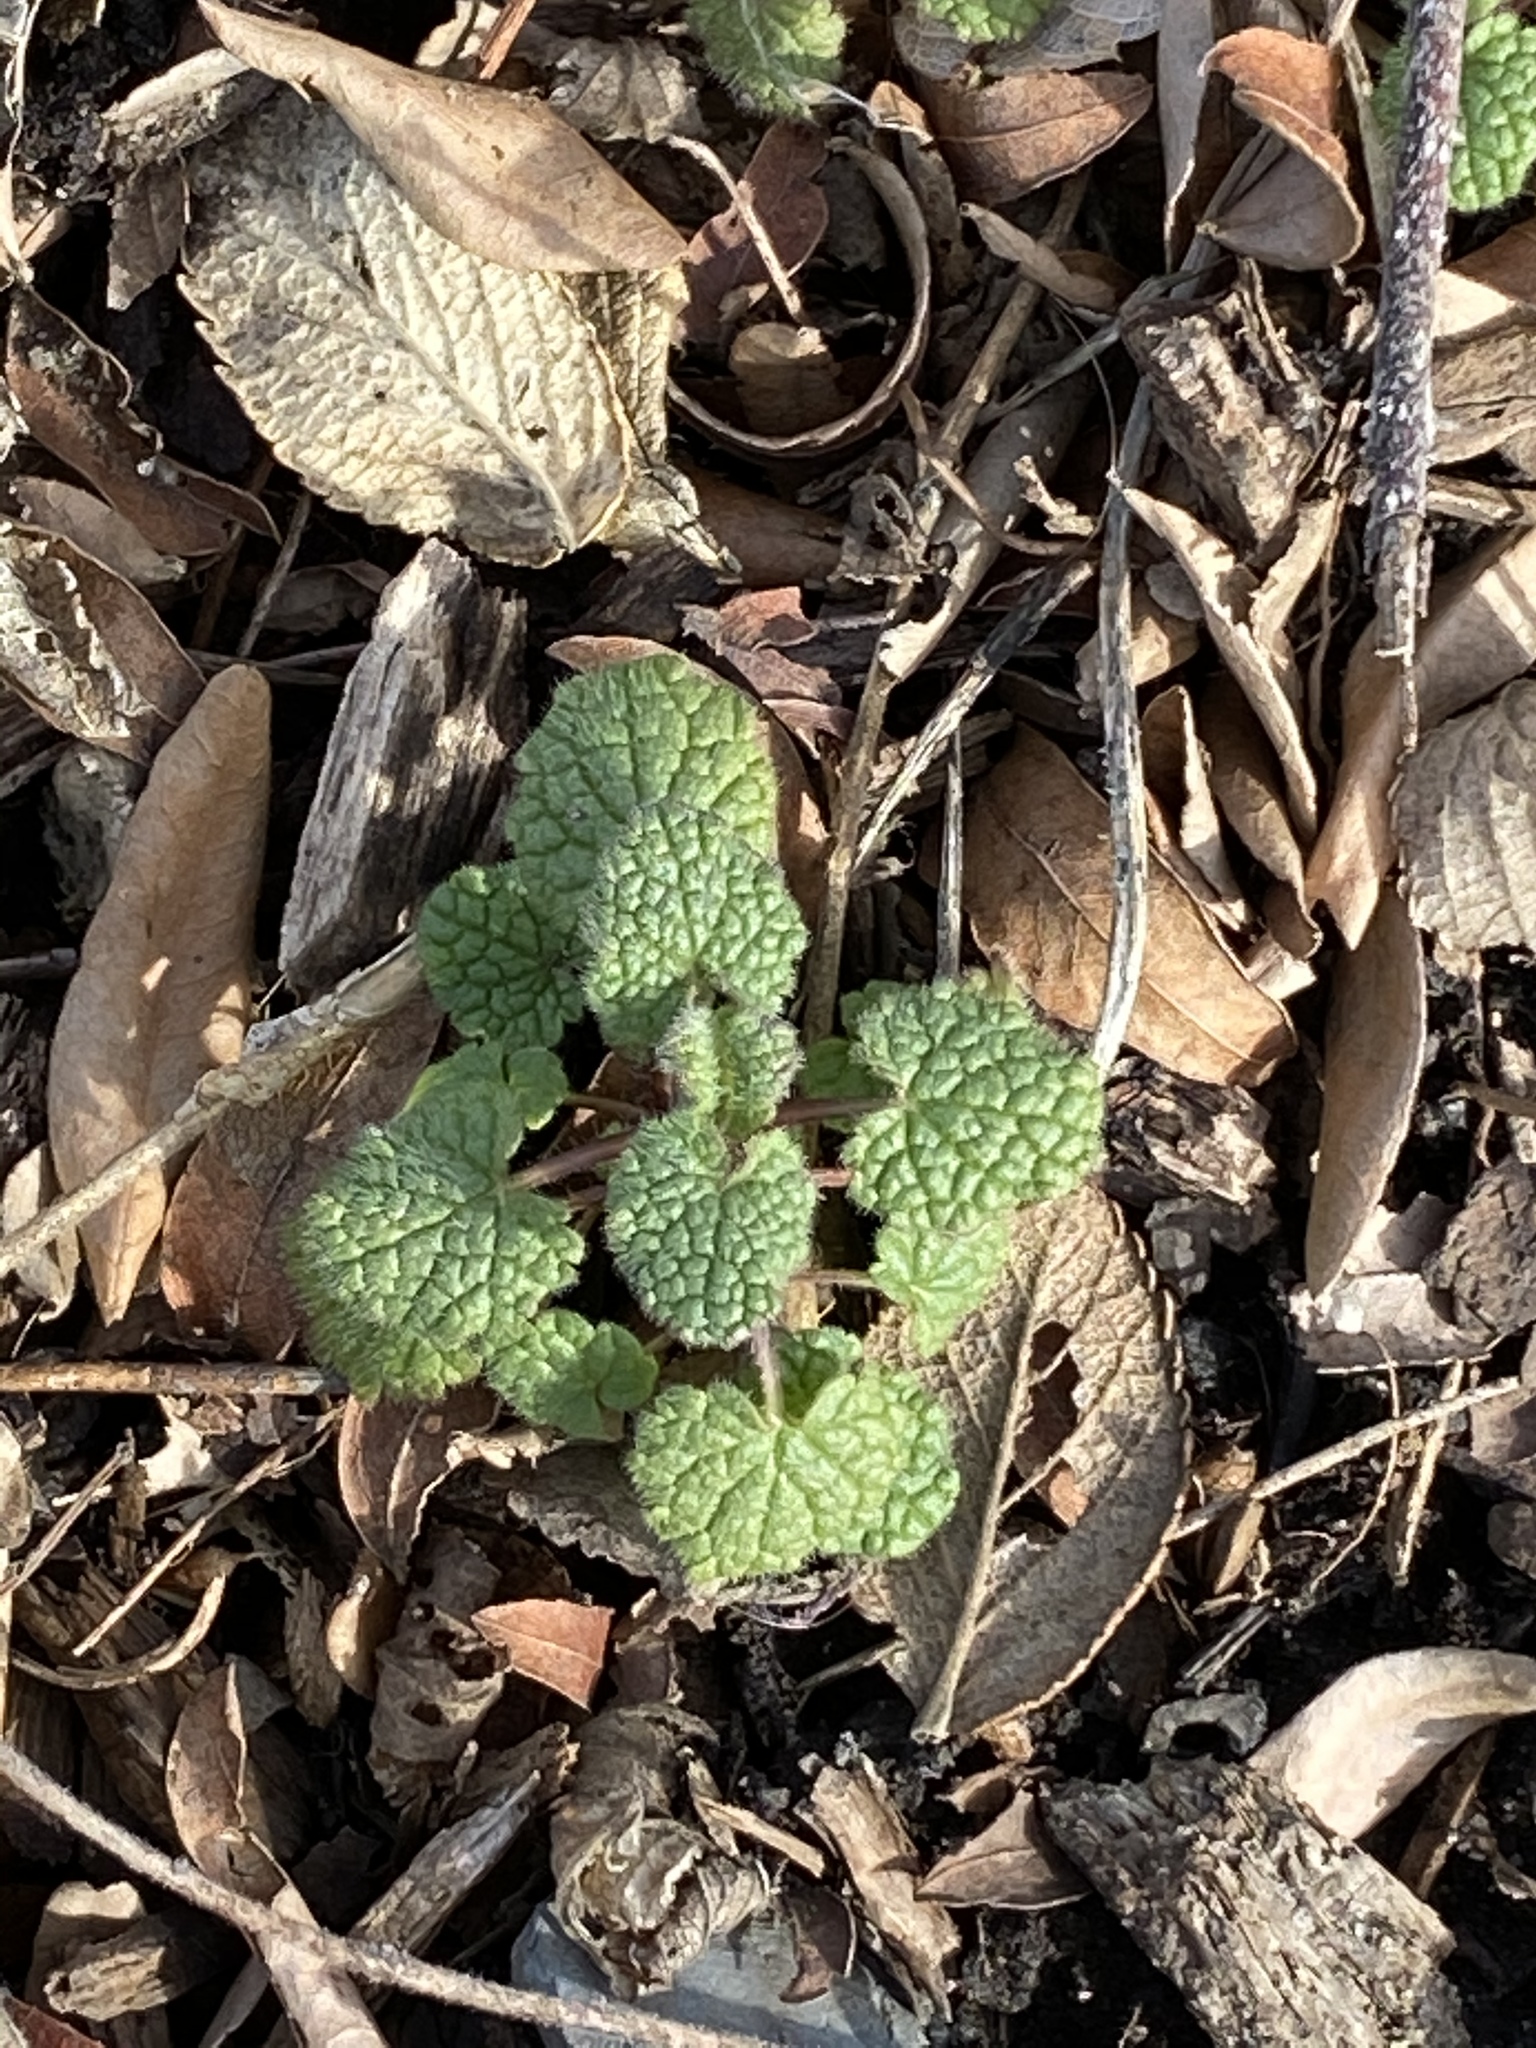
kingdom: Plantae
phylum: Tracheophyta
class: Magnoliopsida
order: Lamiales
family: Lamiaceae
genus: Lamium
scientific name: Lamium purpureum
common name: Red dead-nettle
